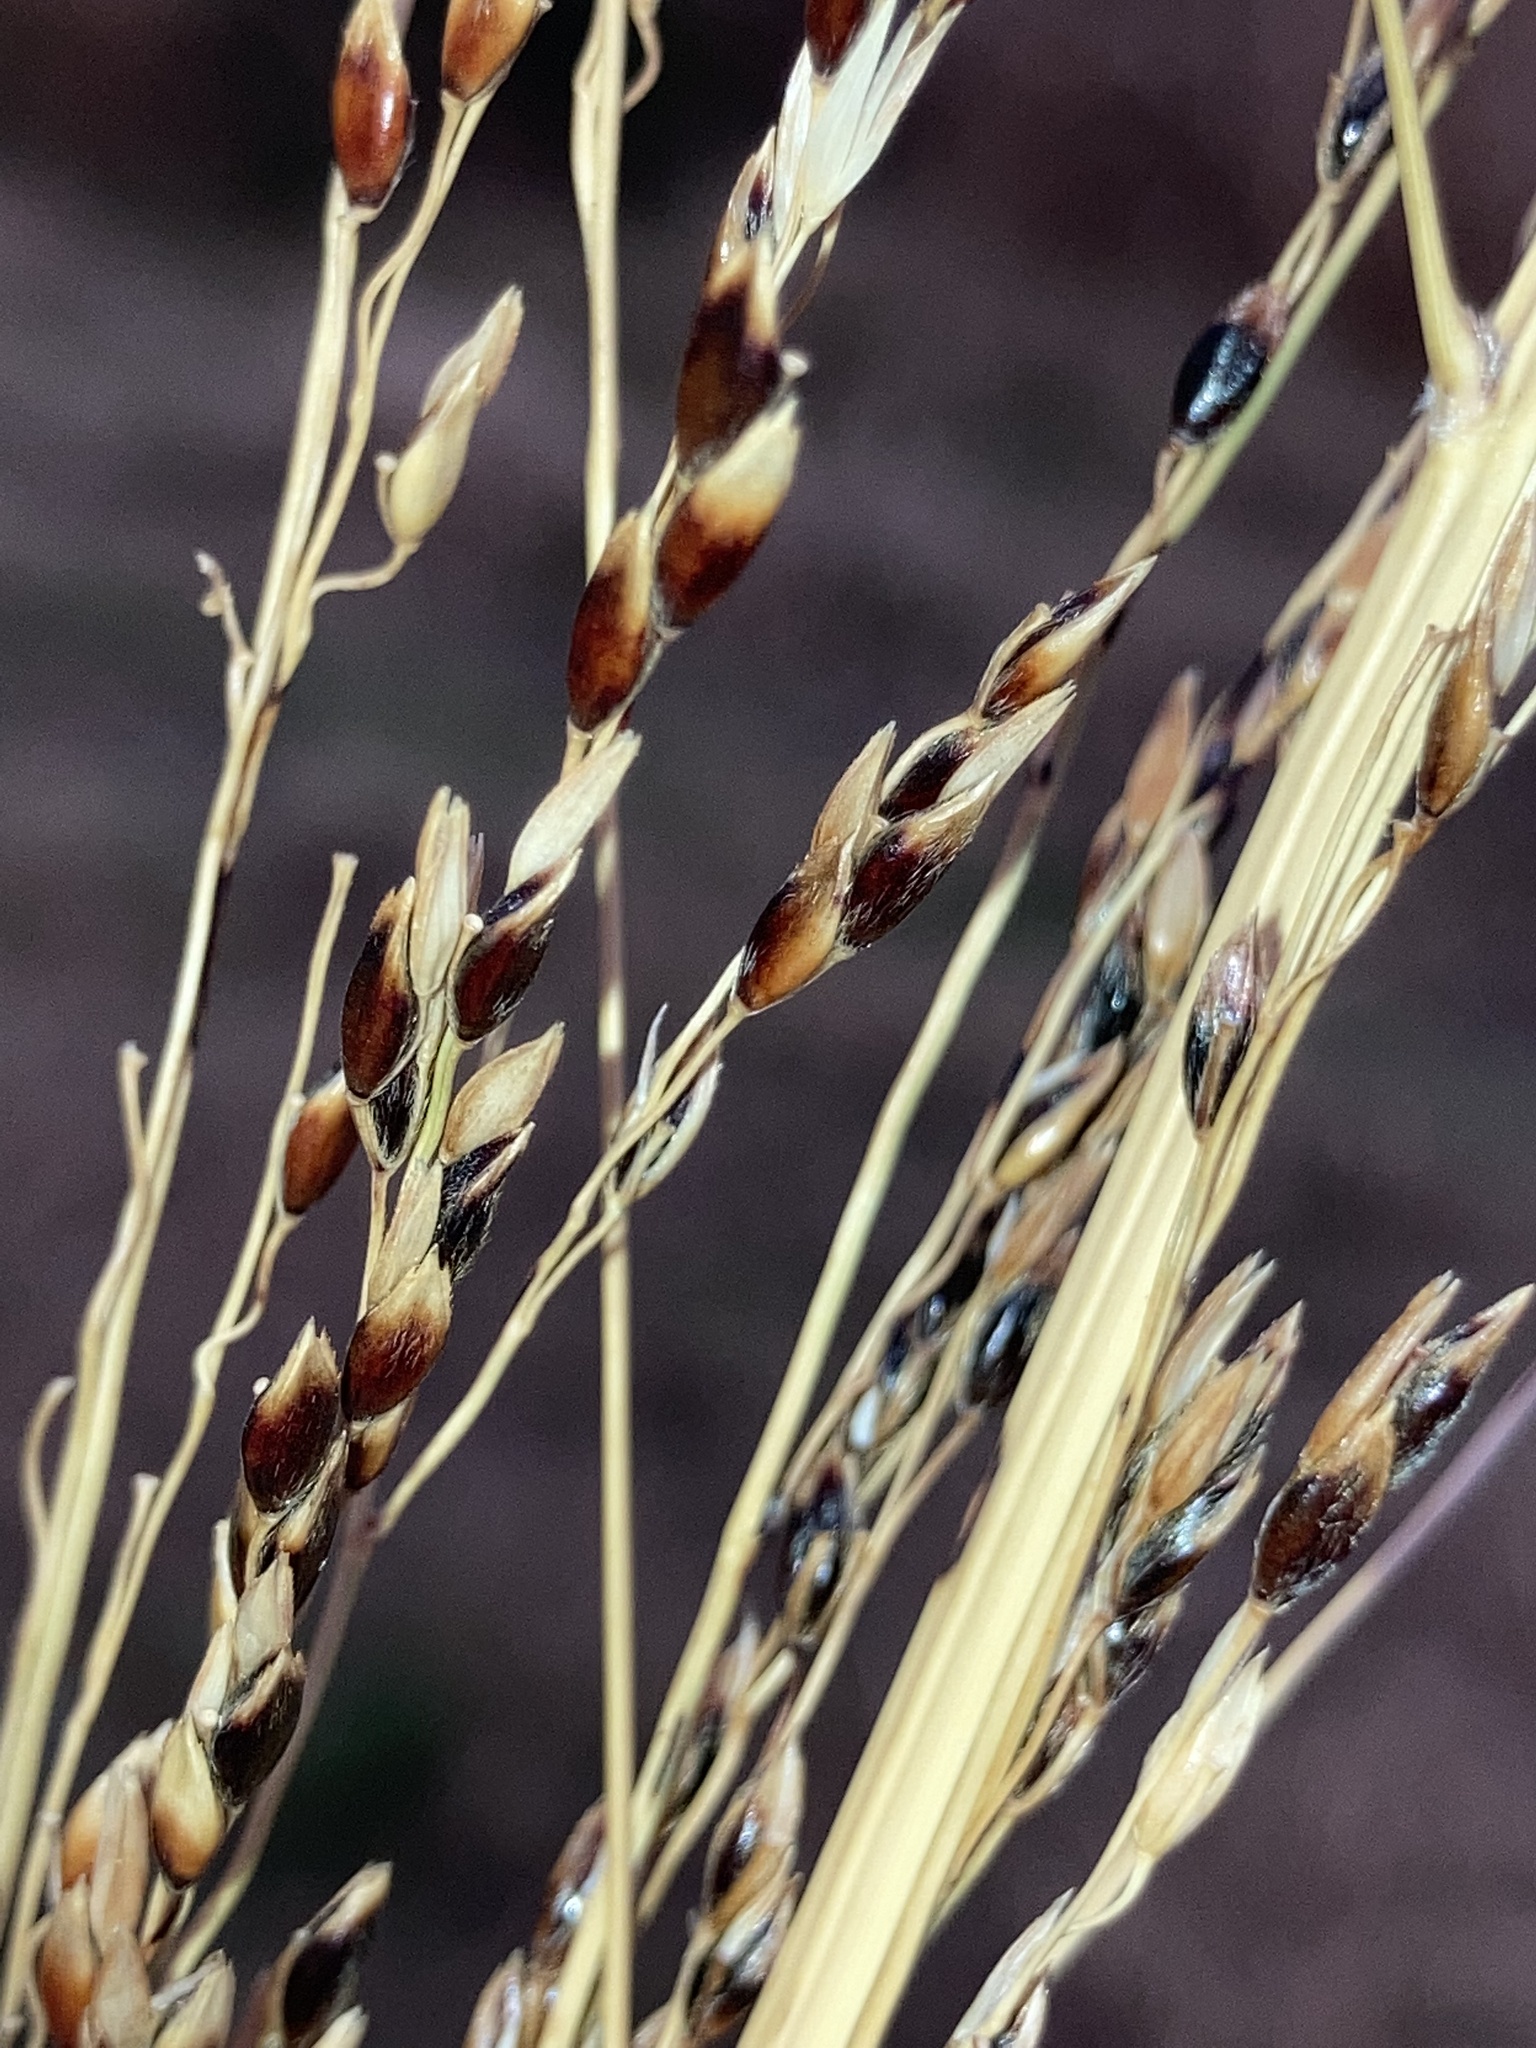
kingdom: Plantae
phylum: Tracheophyta
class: Liliopsida
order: Poales
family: Poaceae
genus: Panicum
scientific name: Panicum virgatum
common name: Switchgrass
